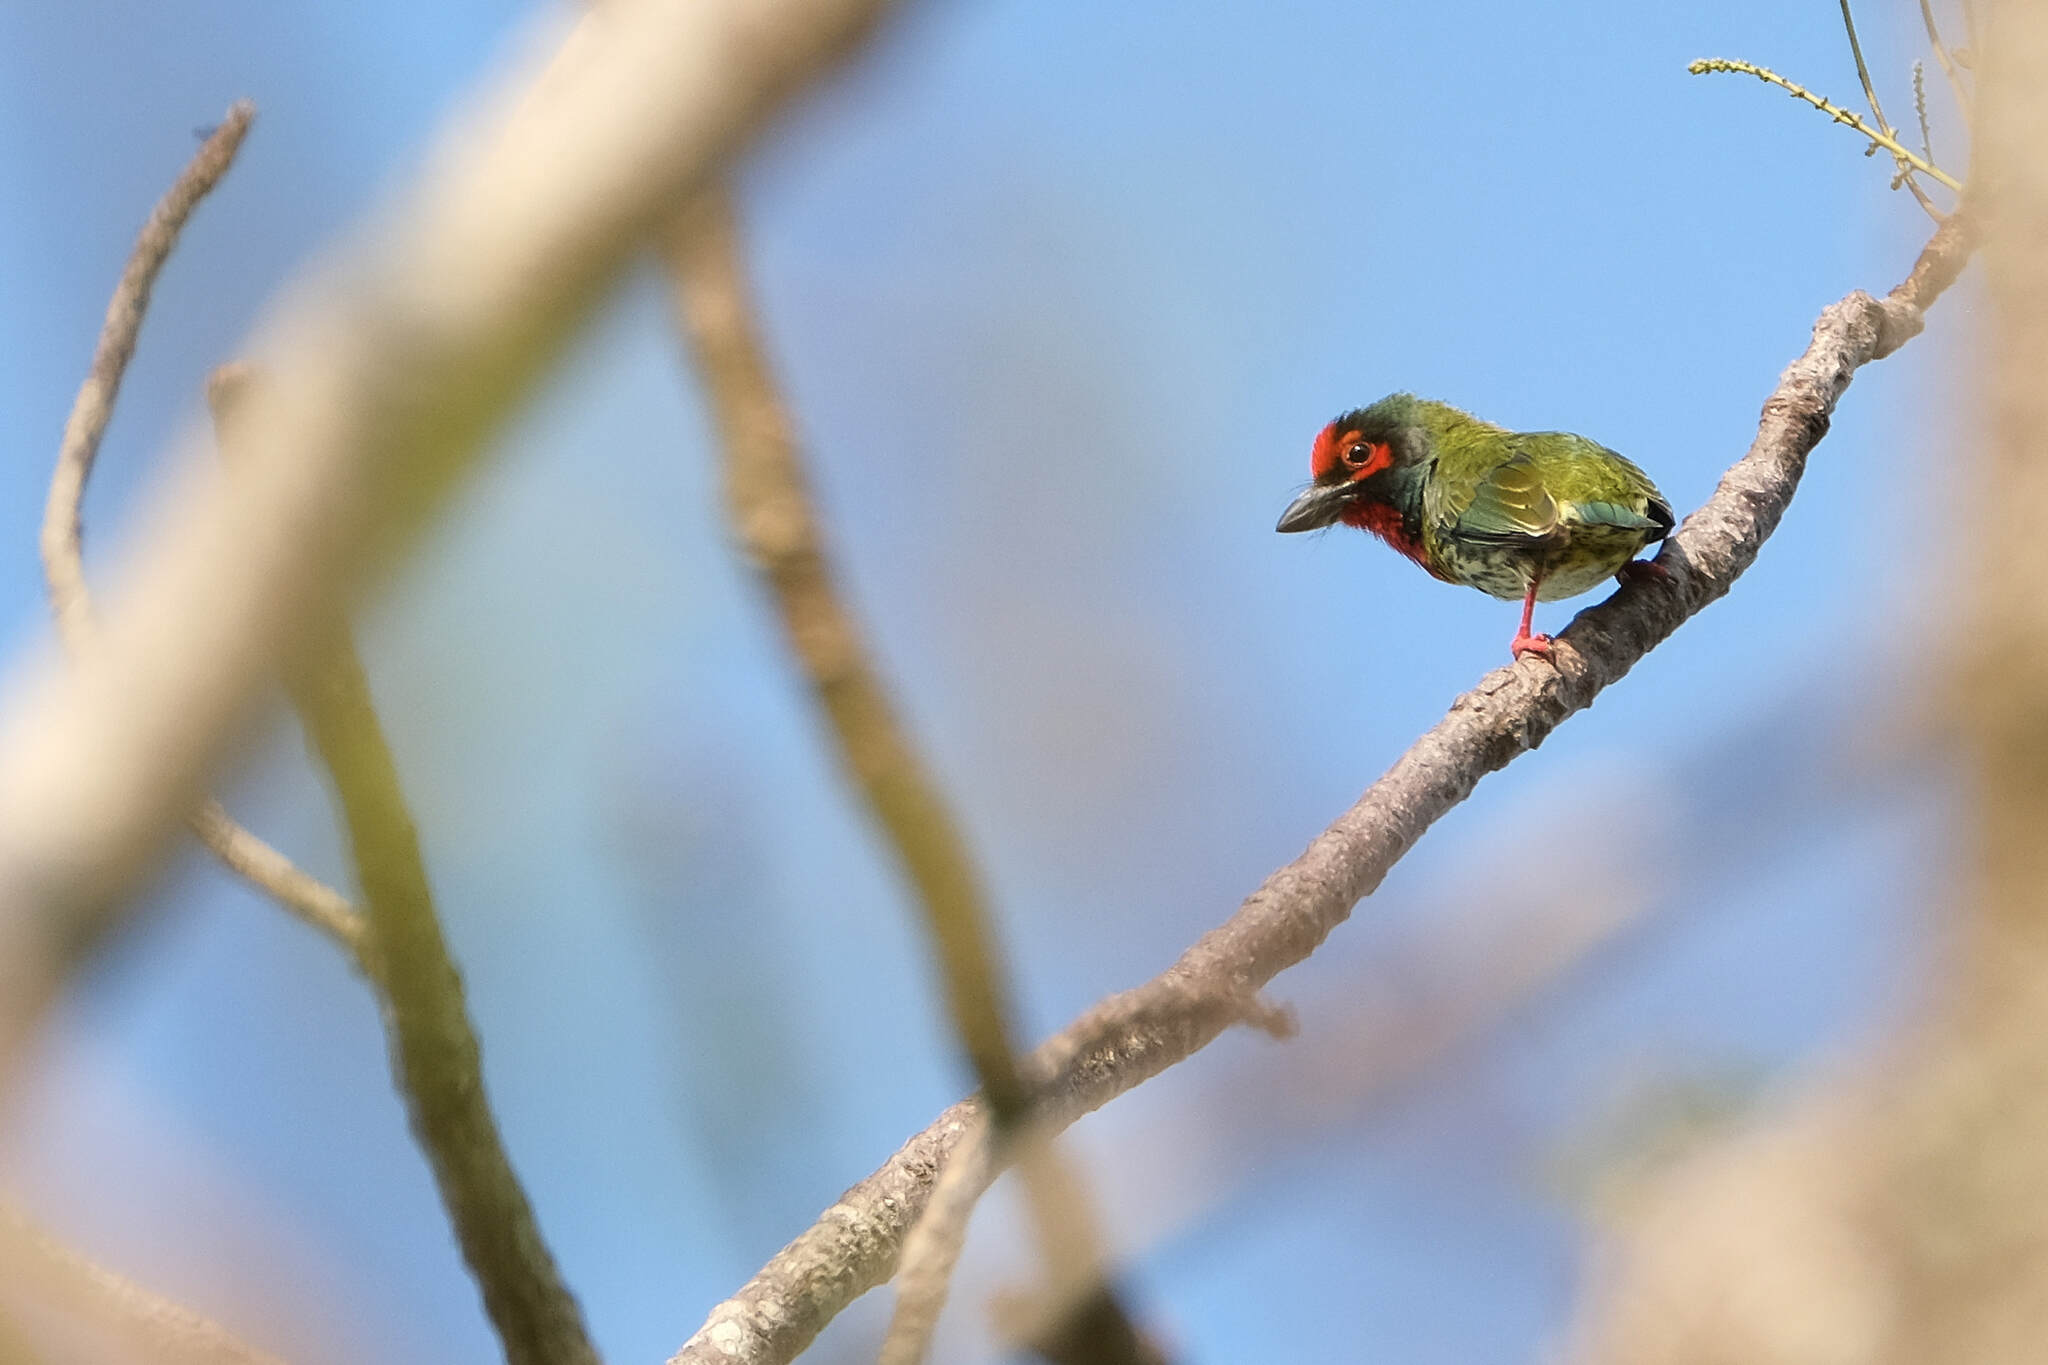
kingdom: Animalia
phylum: Chordata
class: Aves
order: Piciformes
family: Megalaimidae
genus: Psilopogon
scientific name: Psilopogon haemacephalus
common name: Coppersmith barbet
